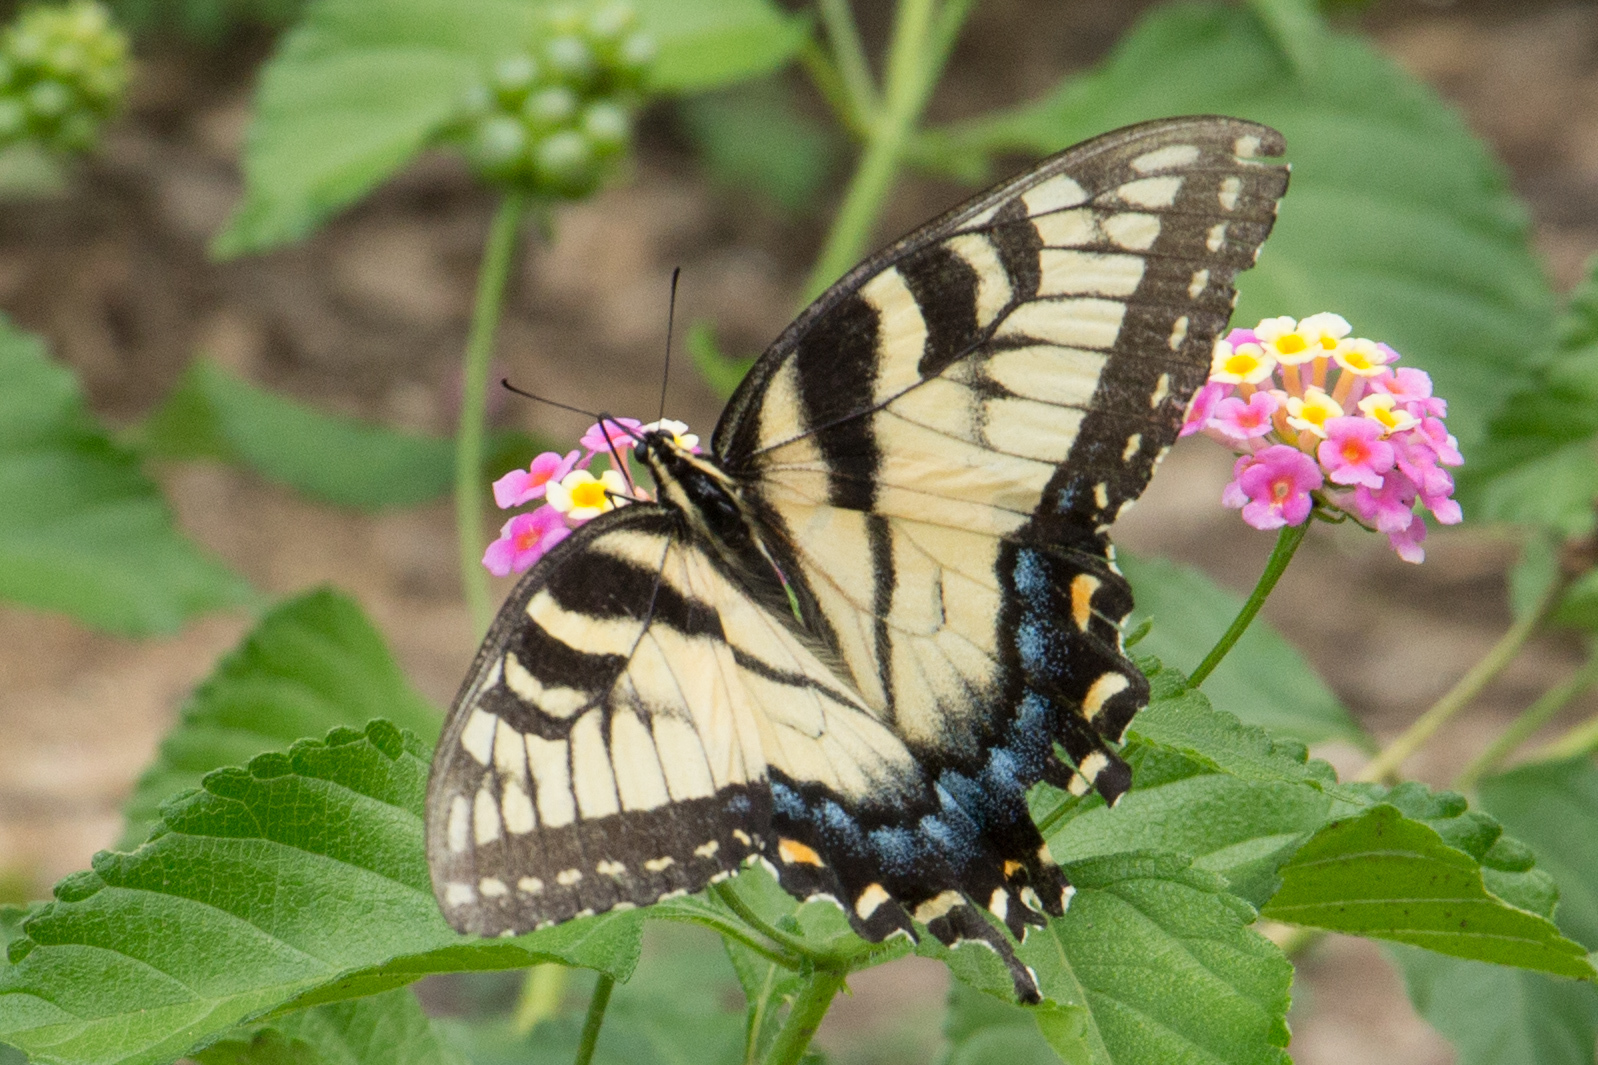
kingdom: Animalia
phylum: Arthropoda
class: Insecta
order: Lepidoptera
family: Papilionidae
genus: Papilio
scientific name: Papilio glaucus
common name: Tiger swallowtail
